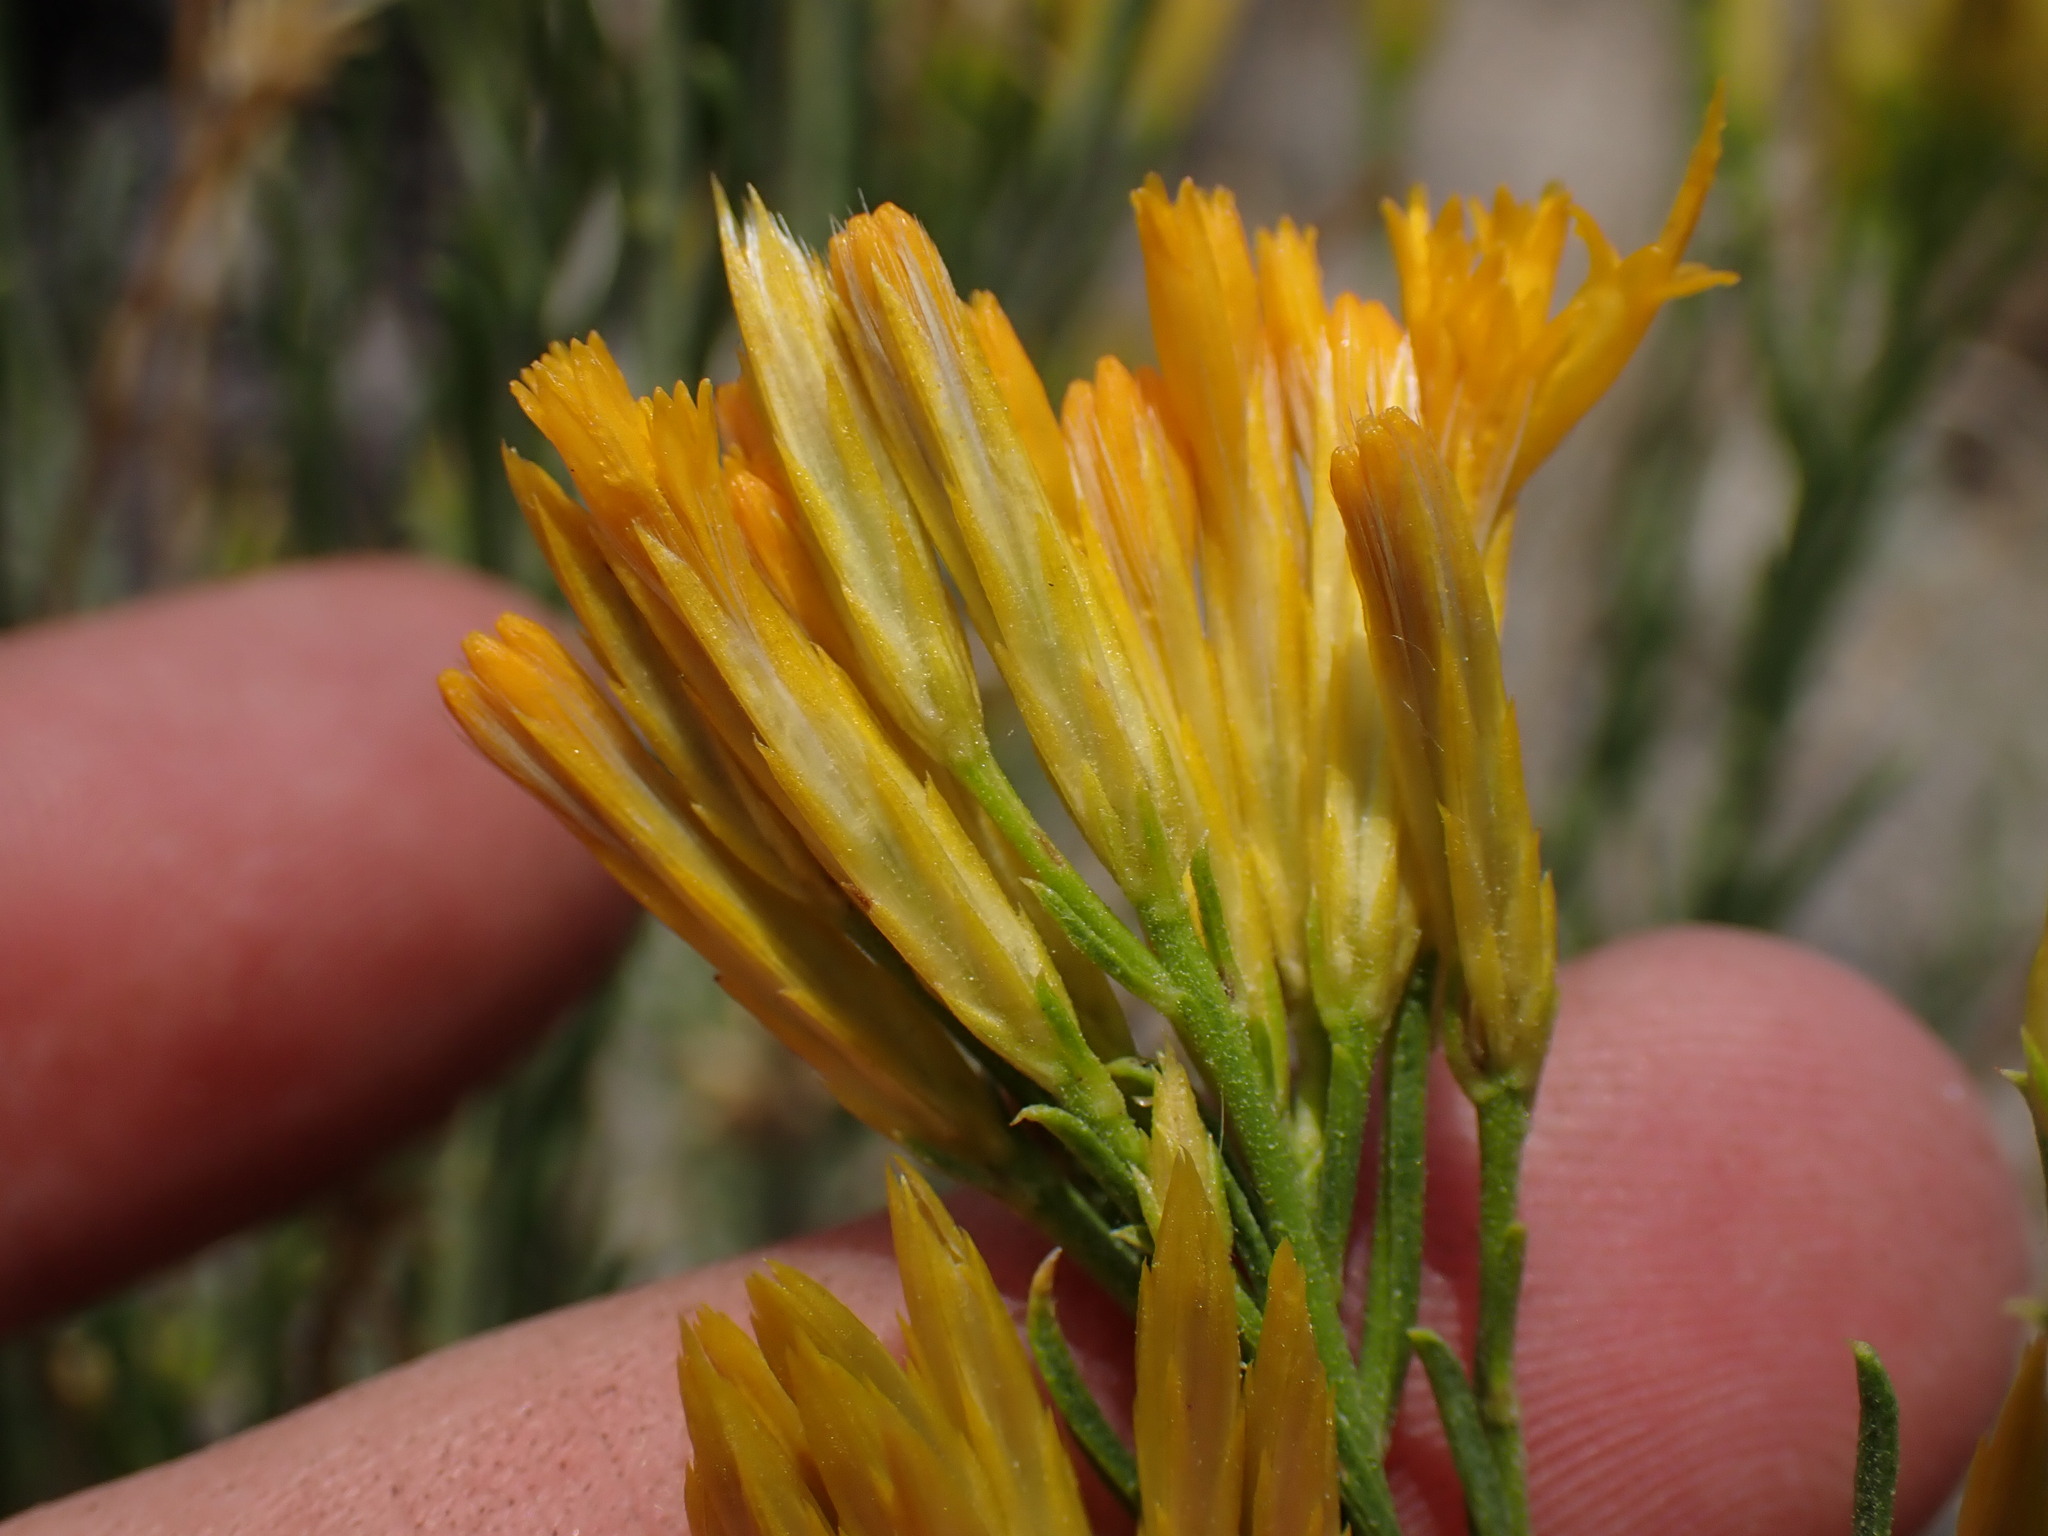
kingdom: Plantae
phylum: Tracheophyta
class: Magnoliopsida
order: Asterales
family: Asteraceae
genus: Ericameria
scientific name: Ericameria nauseosa
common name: Rubber rabbitbrush
